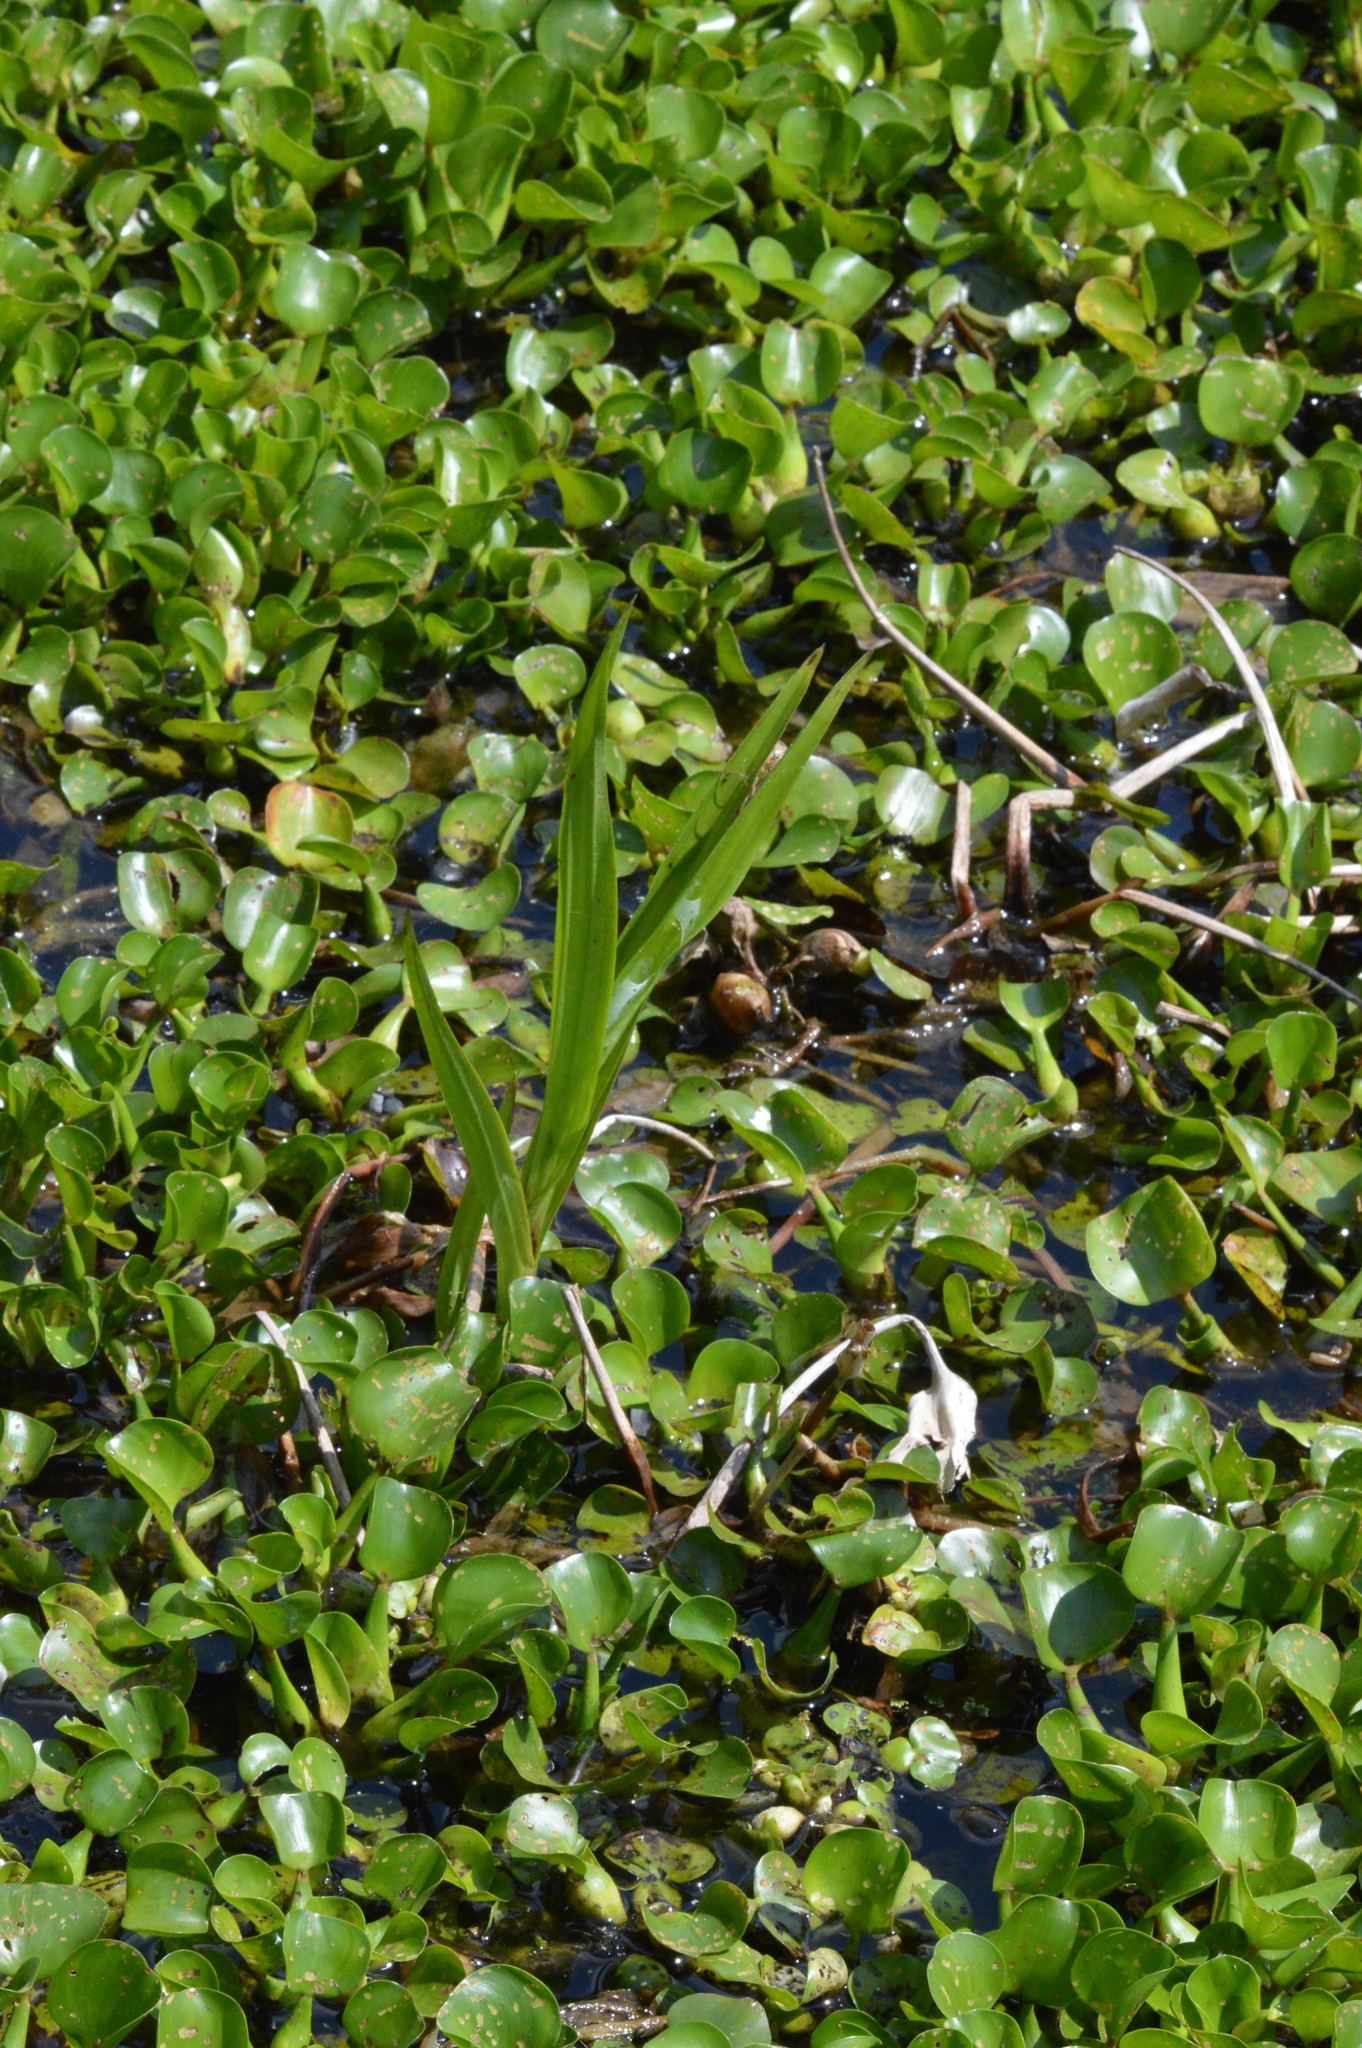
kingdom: Plantae
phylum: Tracheophyta
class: Liliopsida
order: Asparagales
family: Orchidaceae
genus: Habenaria
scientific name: Habenaria repens
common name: Water orchid
